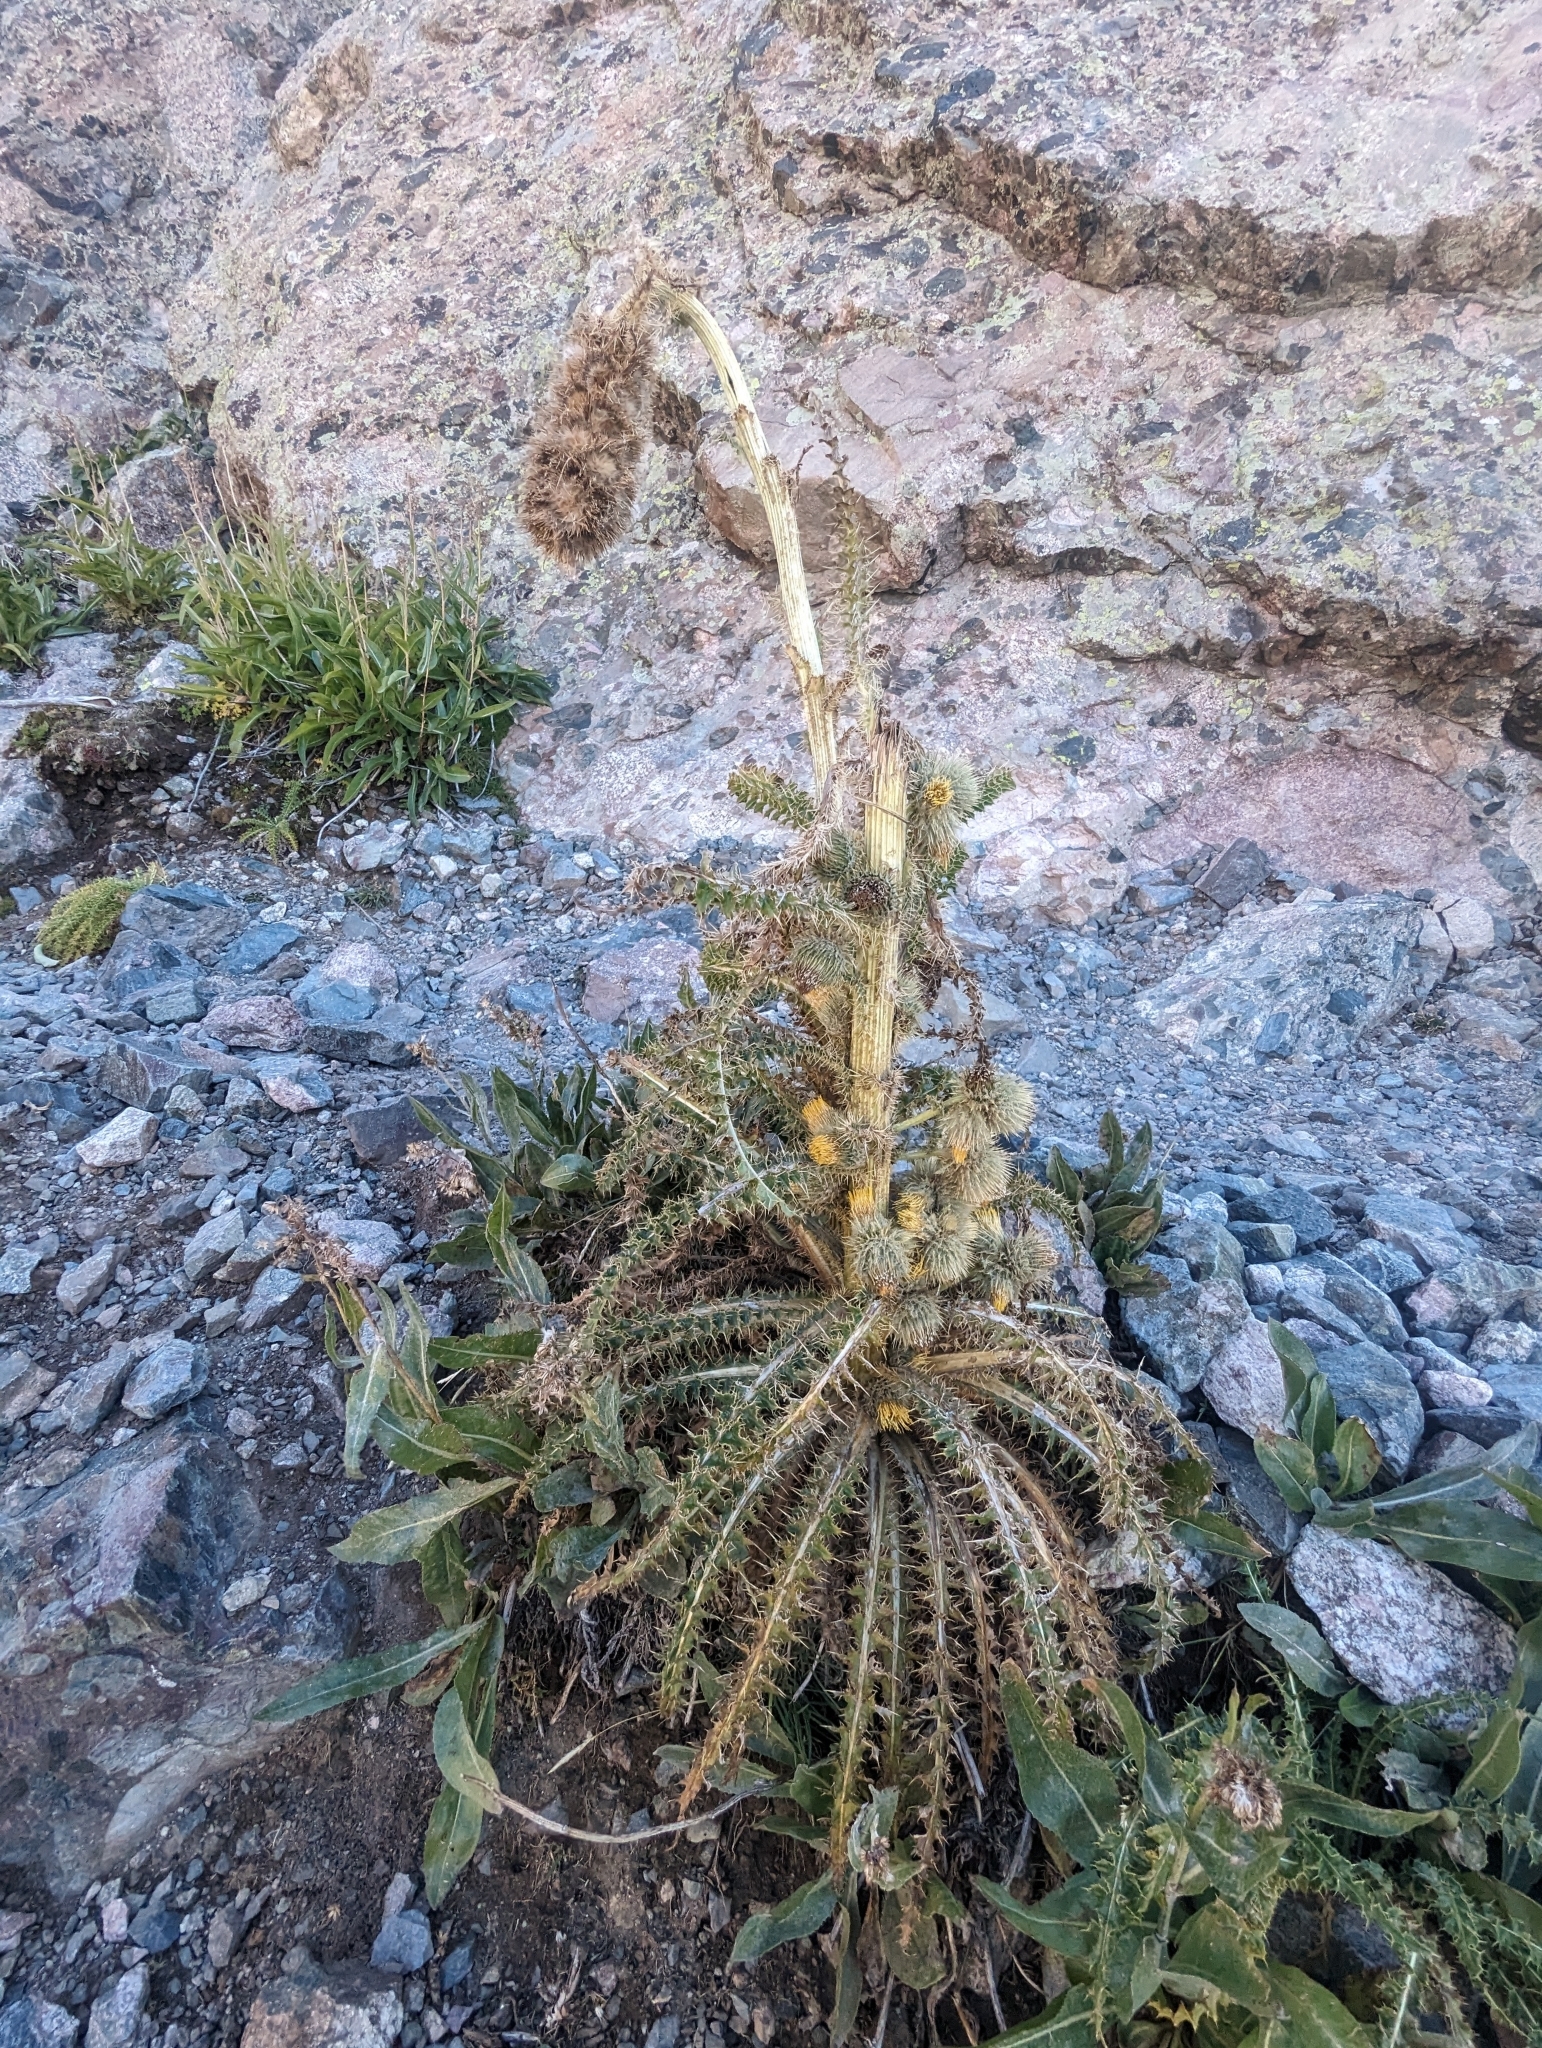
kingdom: Plantae
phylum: Tracheophyta
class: Magnoliopsida
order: Asterales
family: Asteraceae
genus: Cirsium
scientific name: Cirsium funkiae
